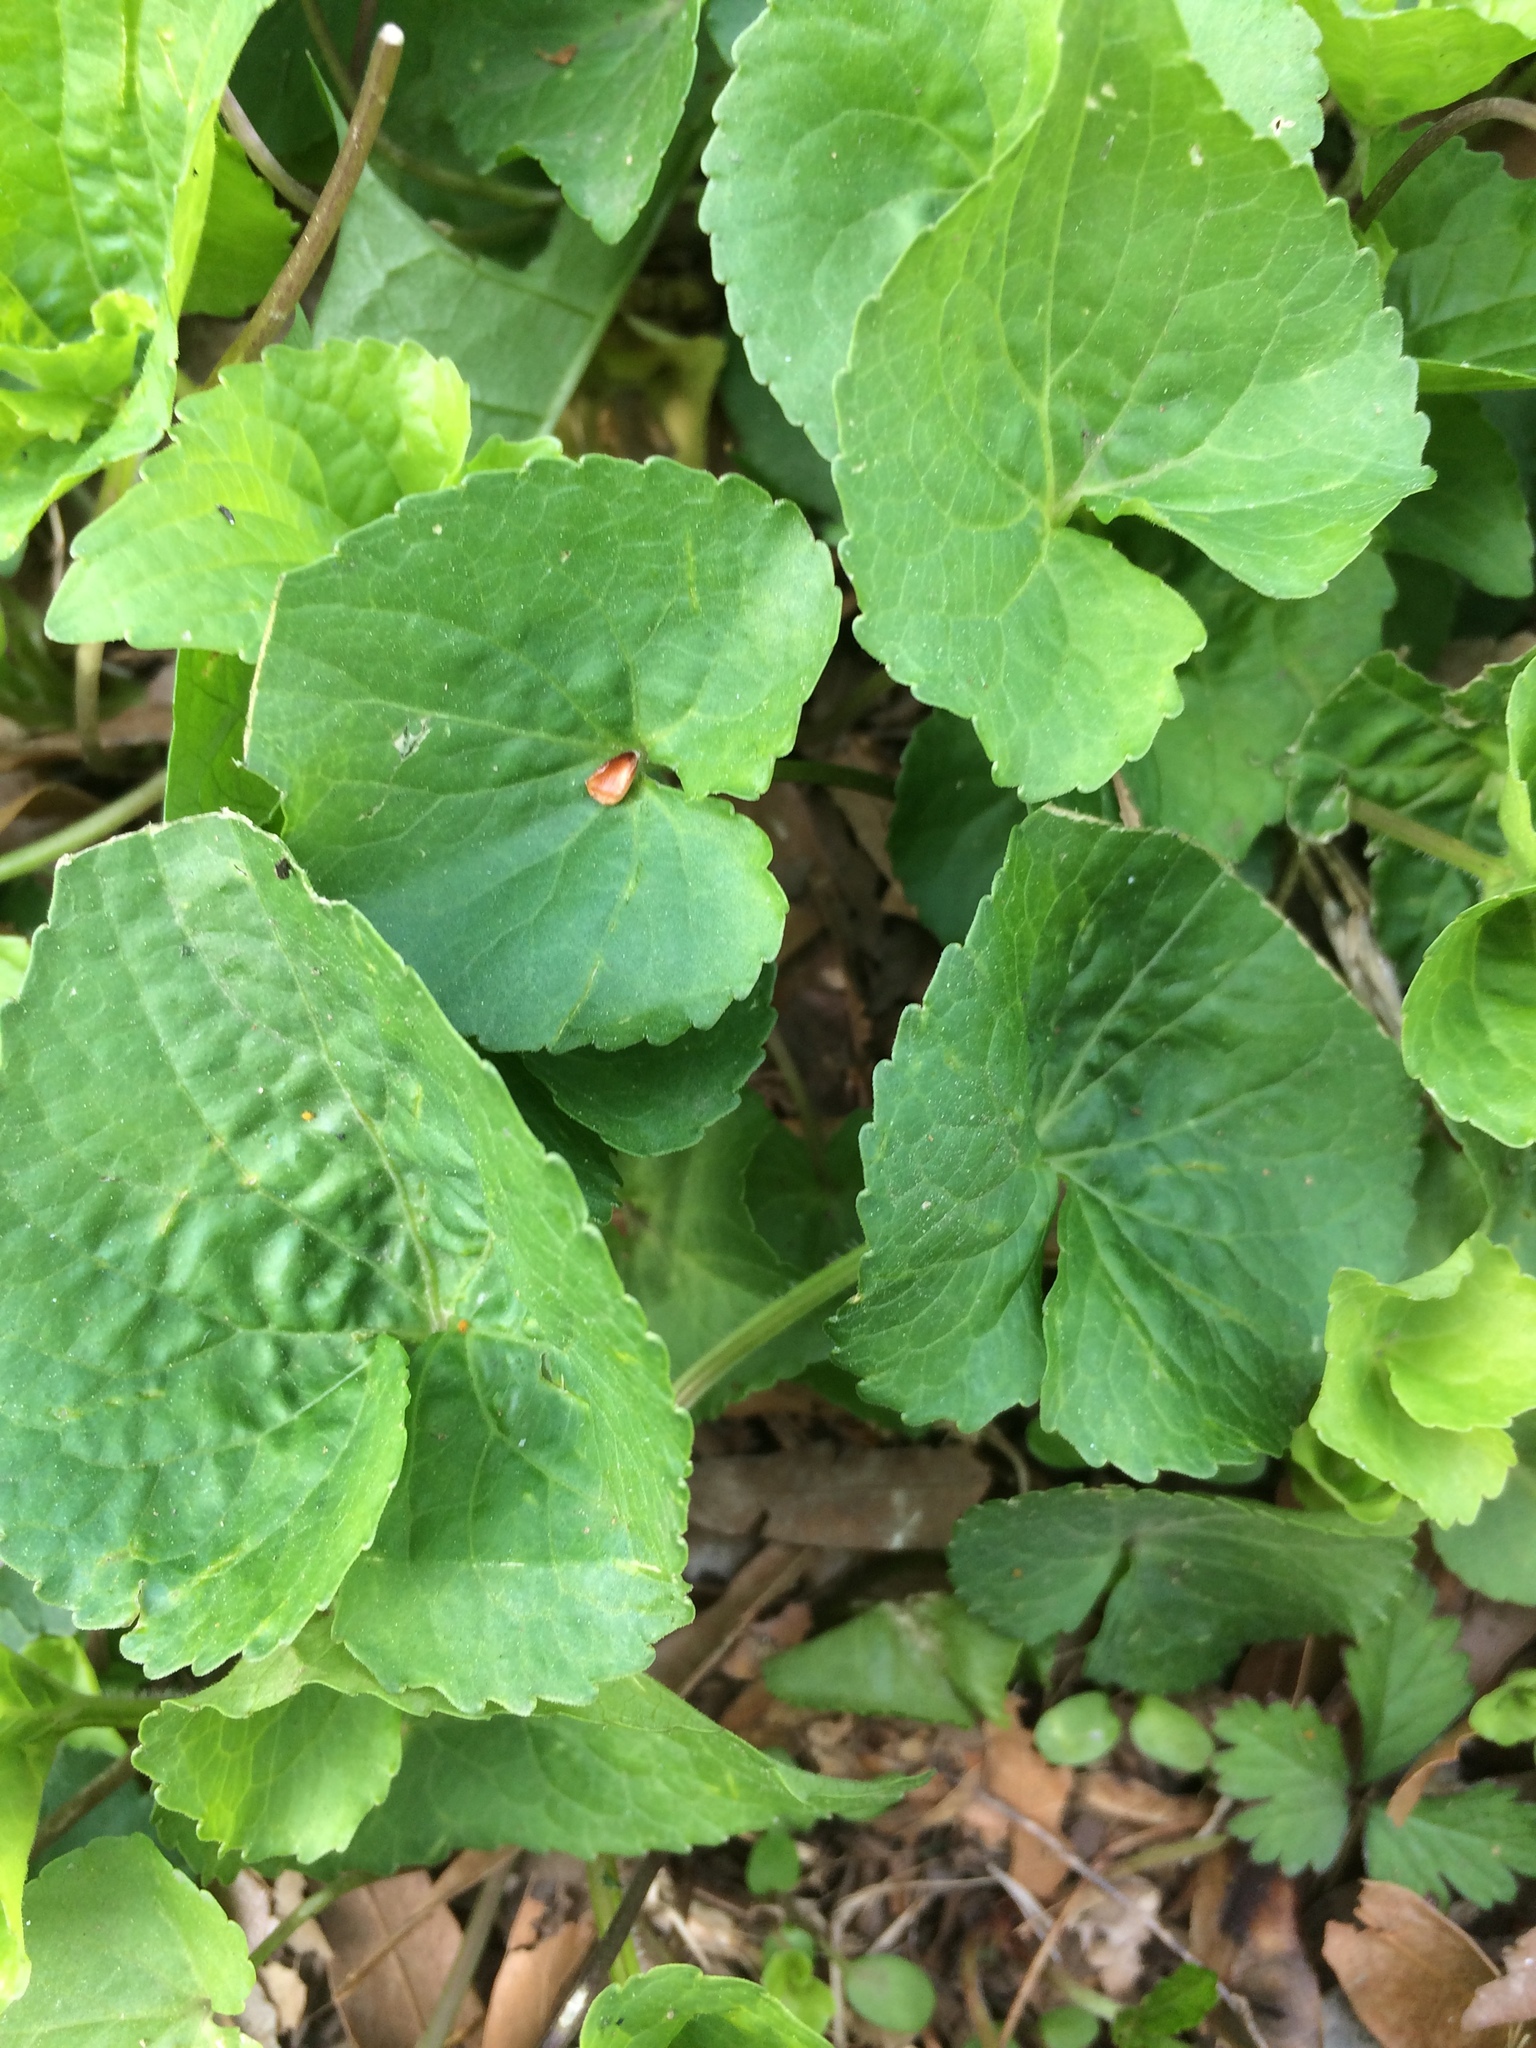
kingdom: Plantae
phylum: Tracheophyta
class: Magnoliopsida
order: Malpighiales
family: Violaceae
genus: Viola
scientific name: Viola sororia
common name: Dooryard violet
